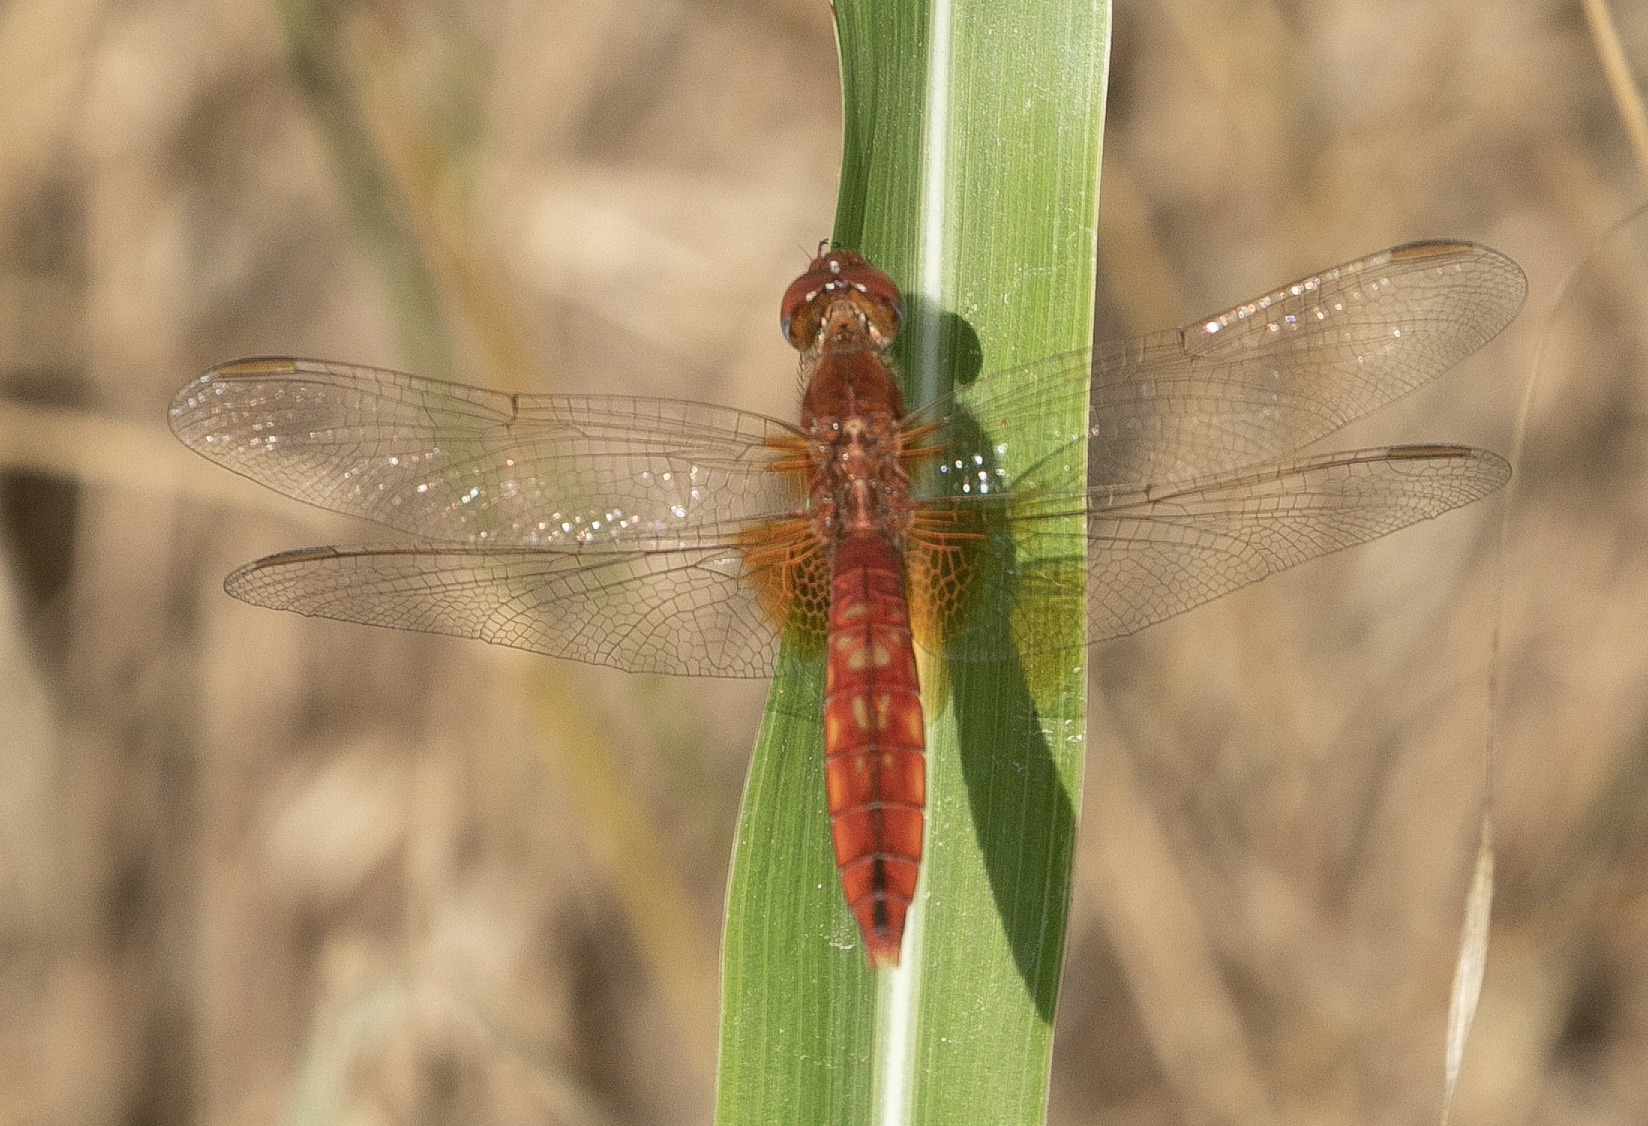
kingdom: Animalia
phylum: Arthropoda
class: Insecta
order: Odonata
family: Libellulidae
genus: Crocothemis
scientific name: Crocothemis erythraea
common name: Scarlet dragonfly
